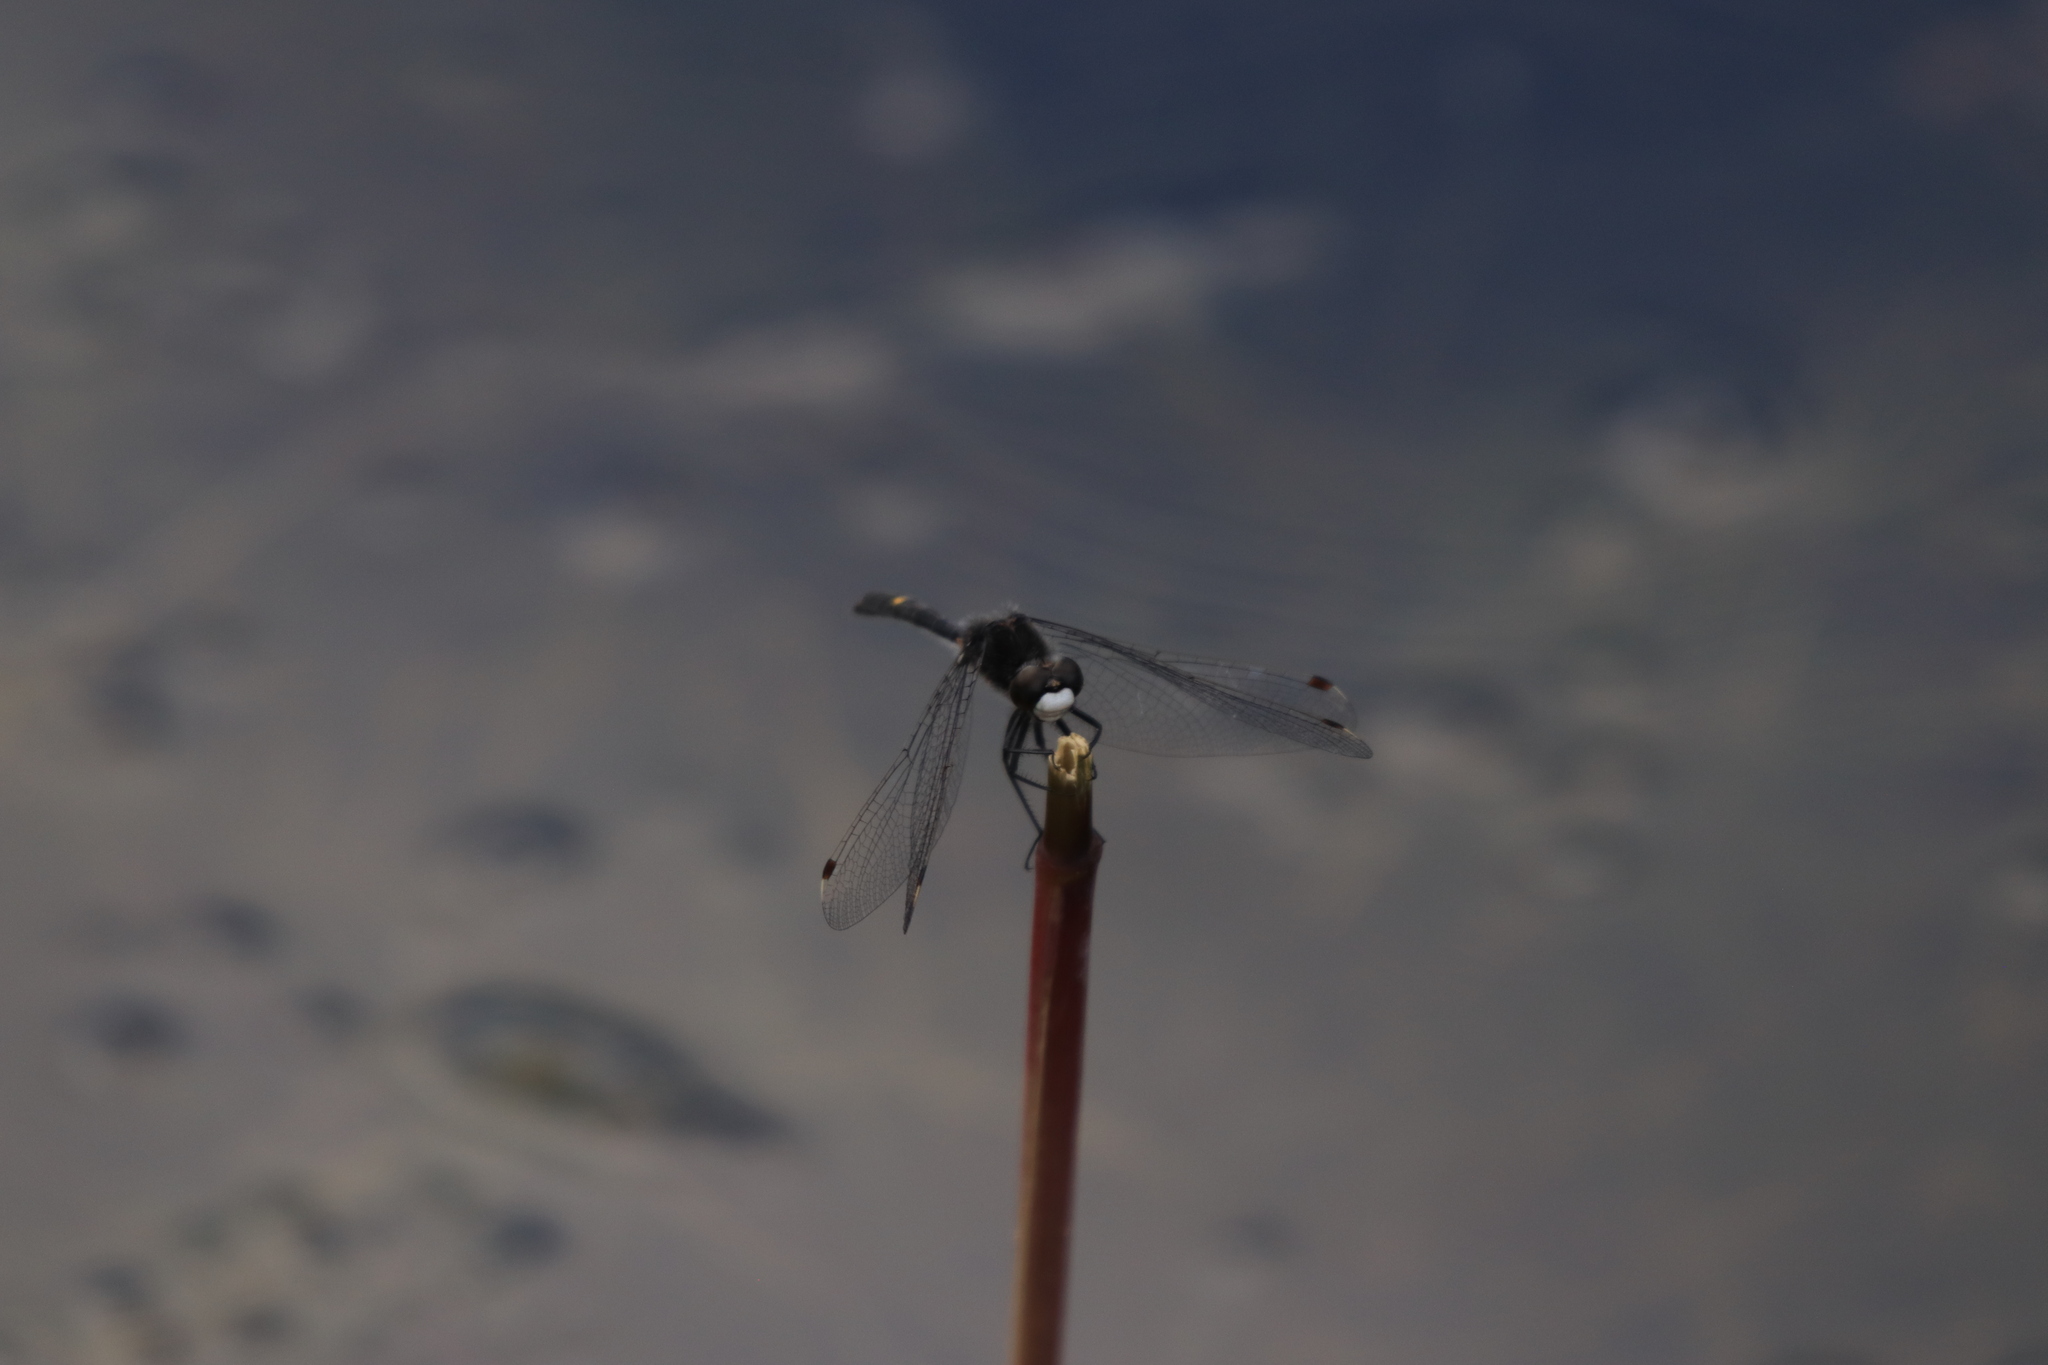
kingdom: Animalia
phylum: Arthropoda
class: Insecta
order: Odonata
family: Libellulidae
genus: Leucorrhinia
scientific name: Leucorrhinia intacta
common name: Dot-tailed whiteface
